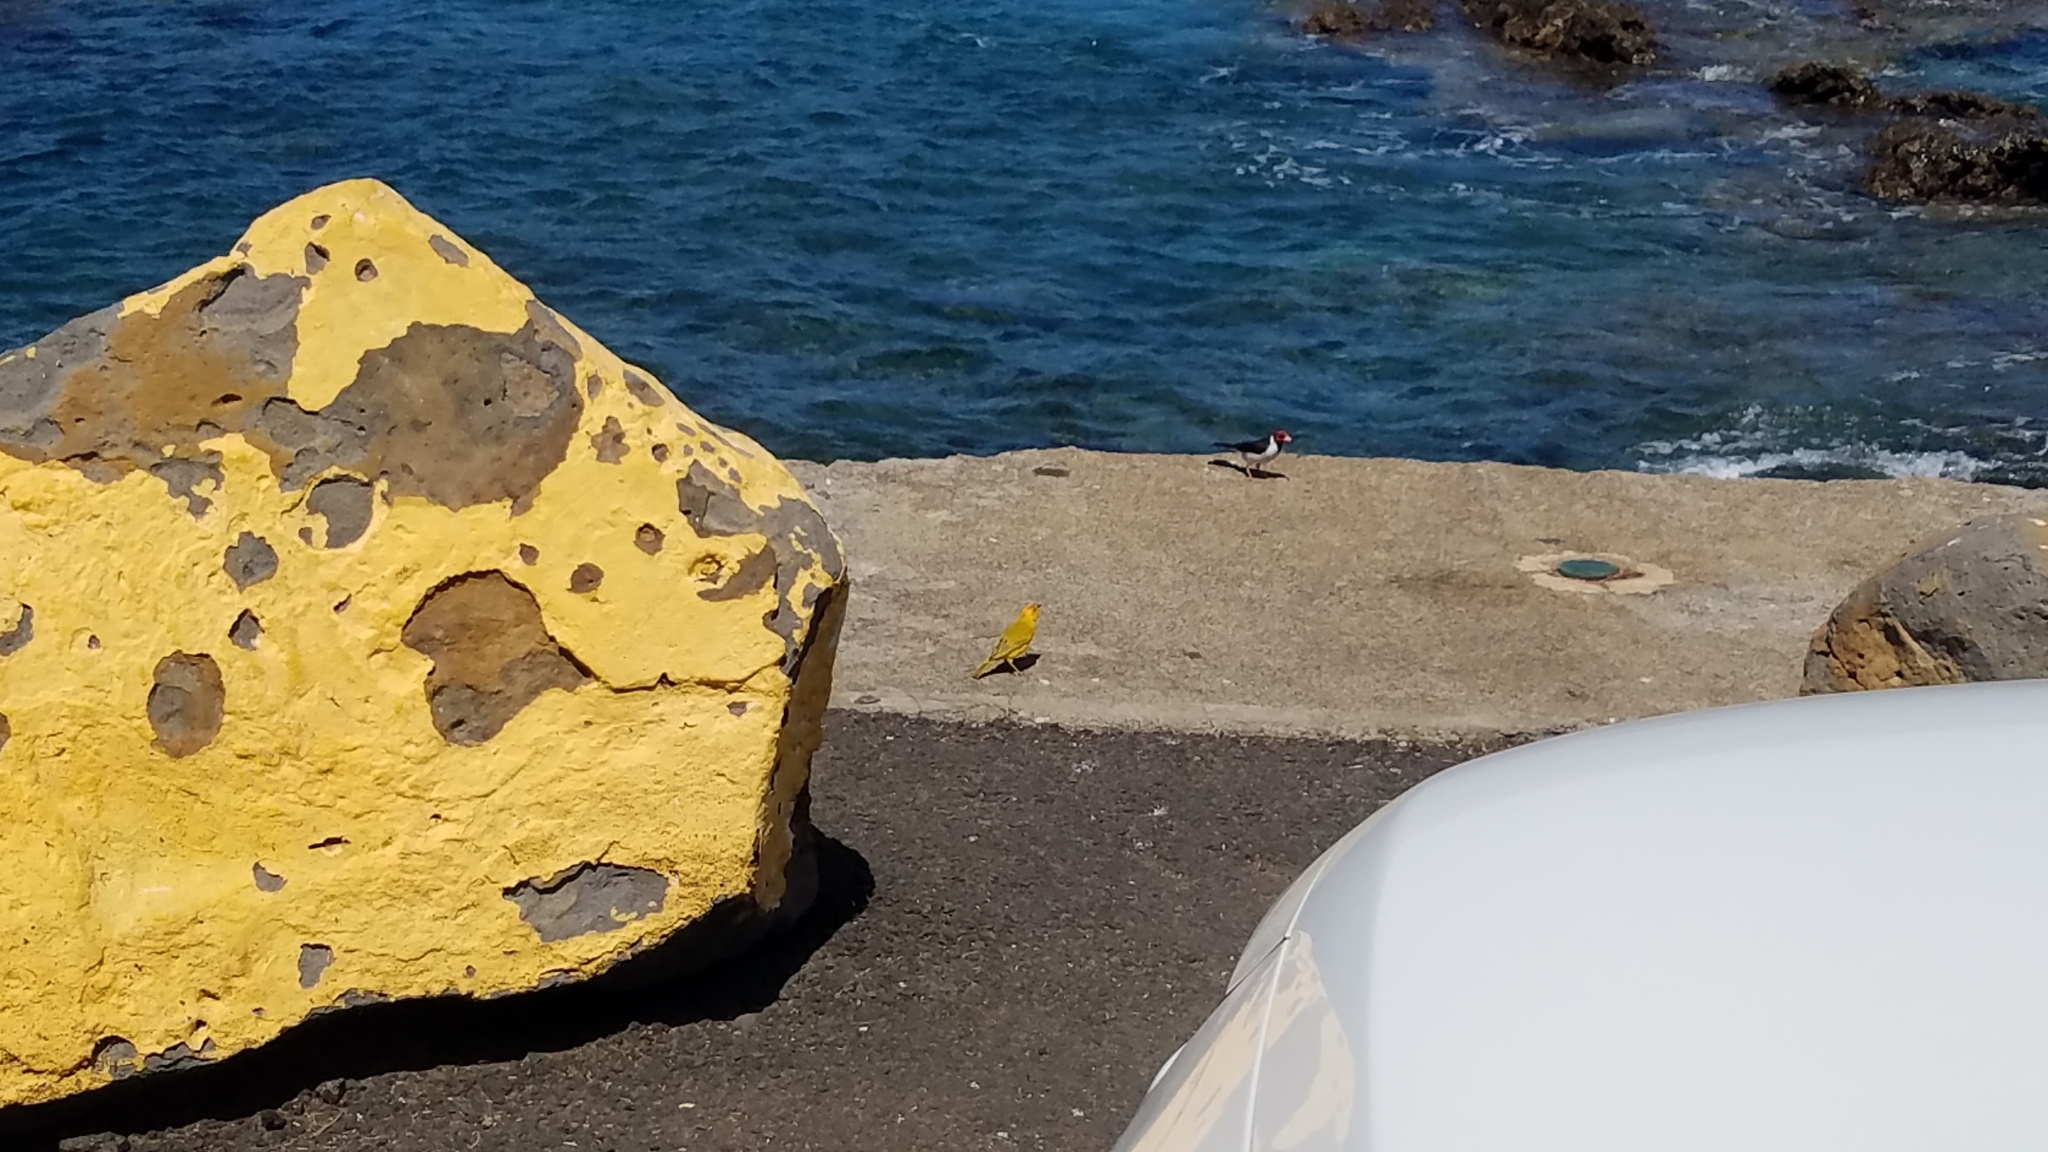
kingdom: Animalia
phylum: Chordata
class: Aves
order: Passeriformes
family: Thraupidae
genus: Sicalis
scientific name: Sicalis flaveola
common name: Saffron finch
